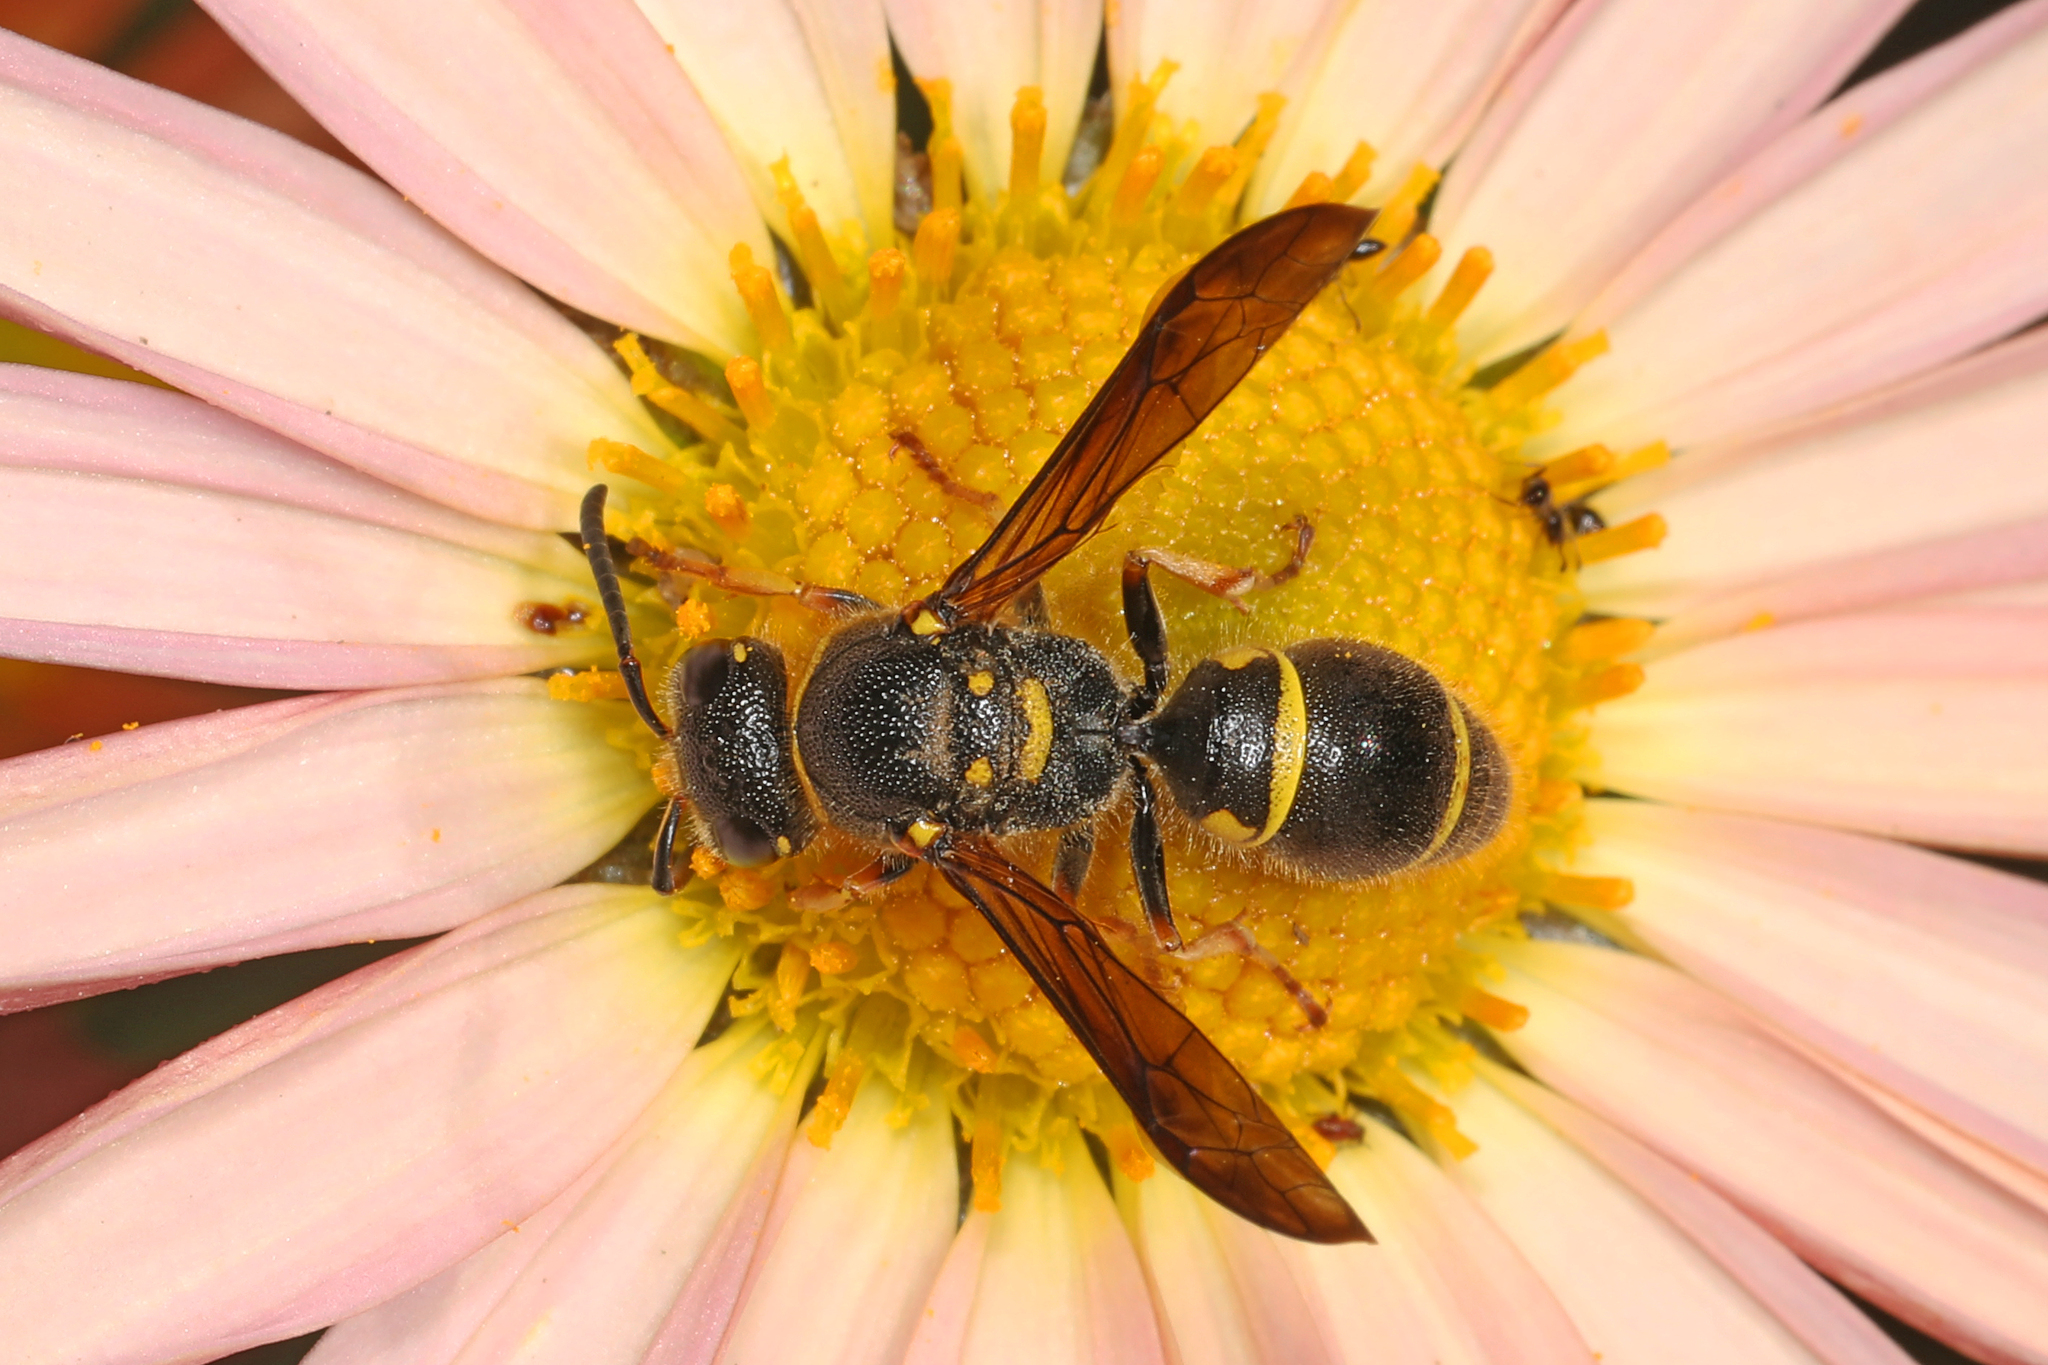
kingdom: Animalia
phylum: Arthropoda
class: Insecta
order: Hymenoptera
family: Vespidae
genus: Ancistrocerus
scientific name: Ancistrocerus campestris
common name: Smiling mason wasp
